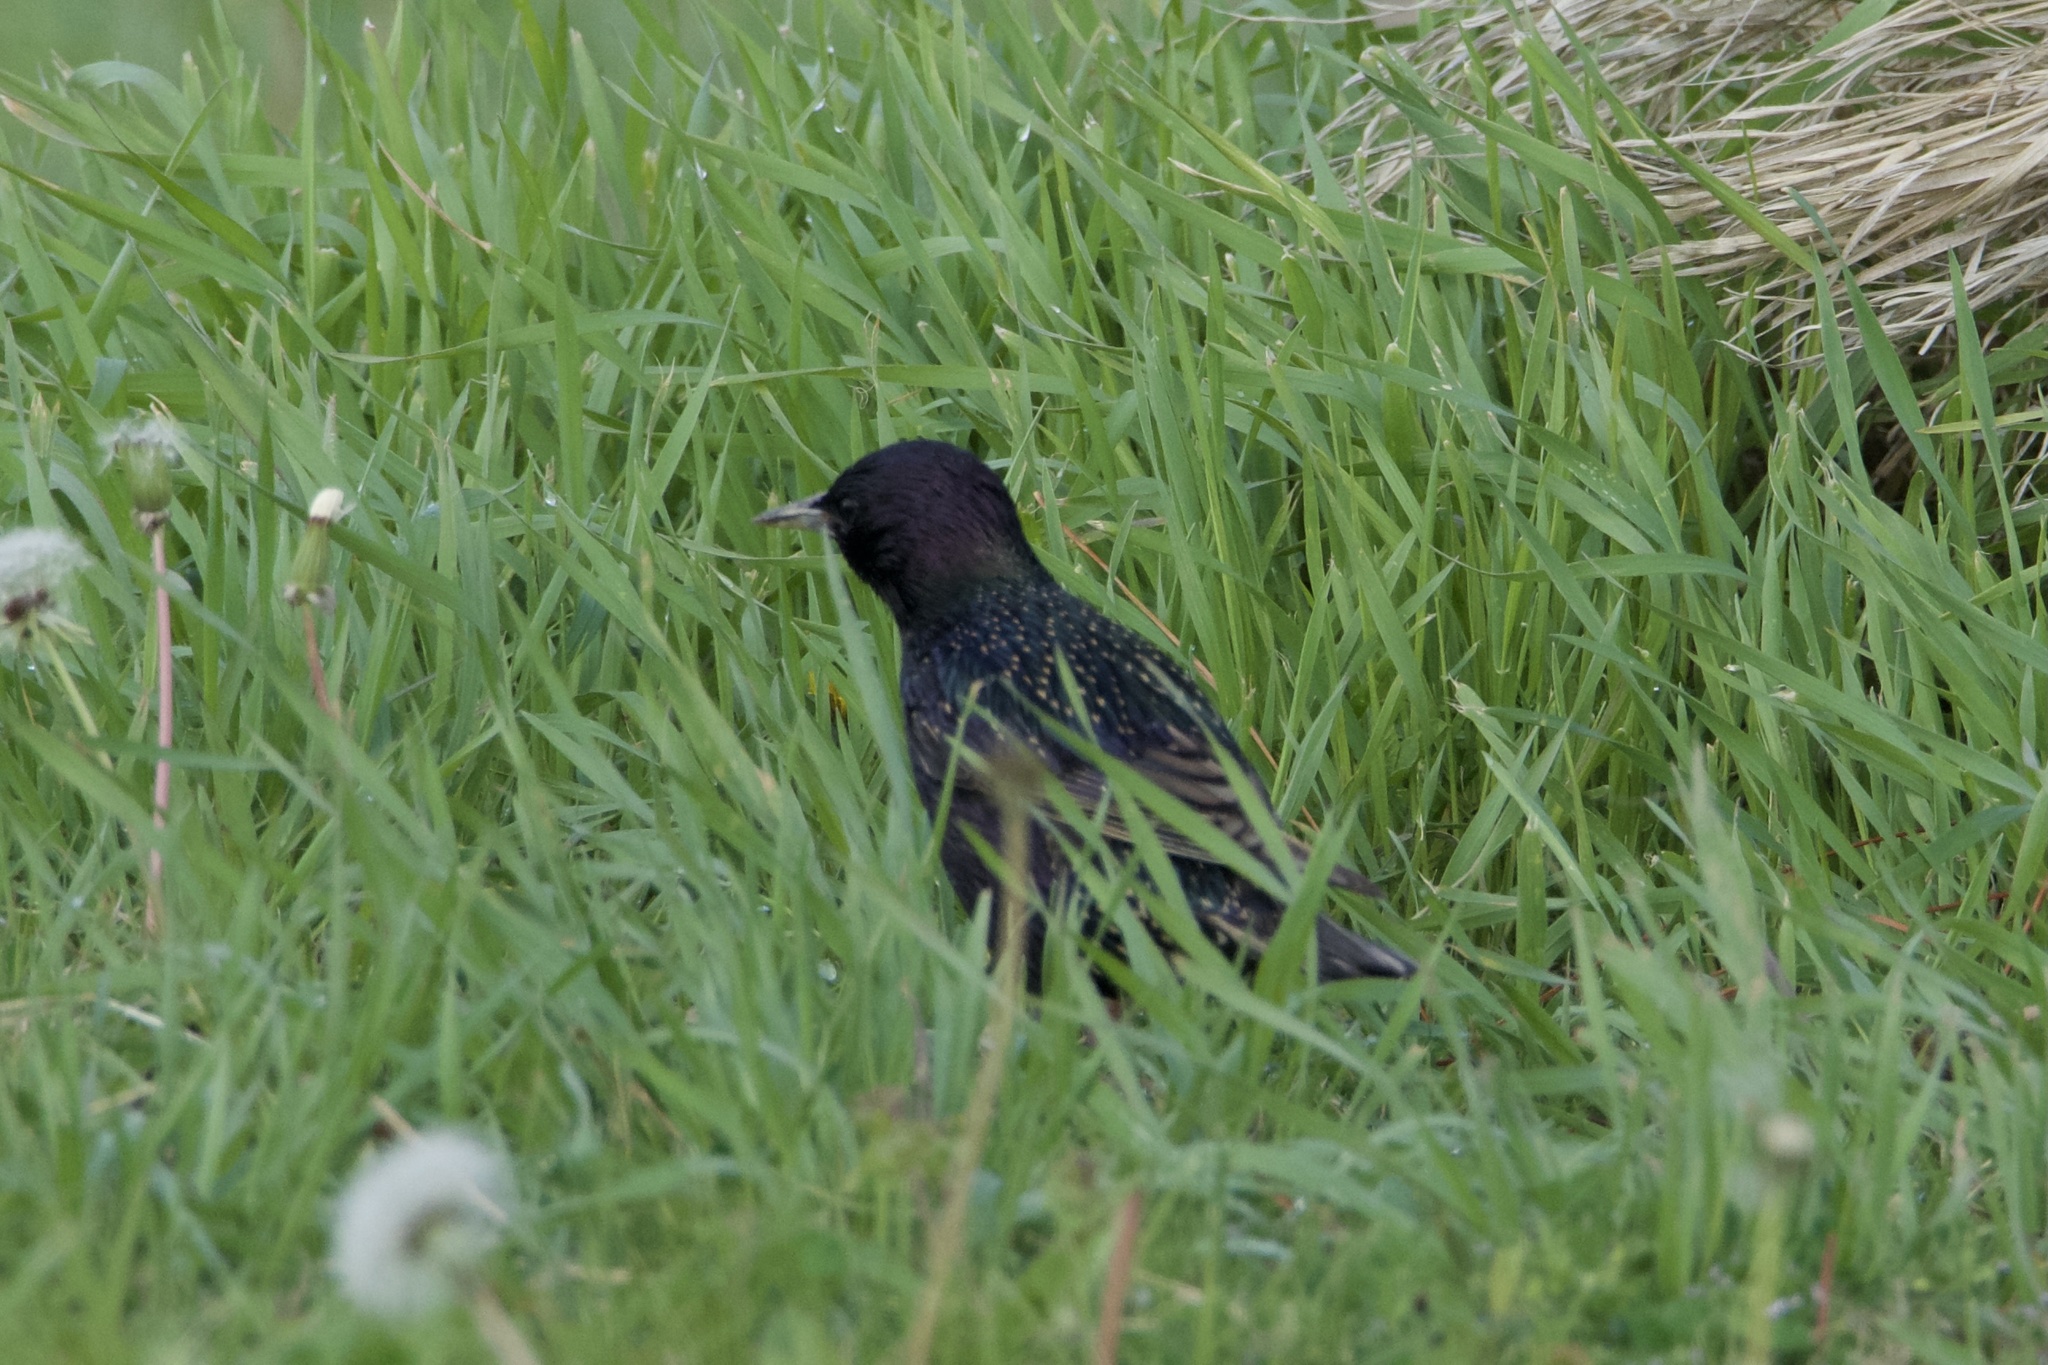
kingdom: Animalia
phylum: Chordata
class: Aves
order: Passeriformes
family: Sturnidae
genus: Sturnus
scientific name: Sturnus vulgaris
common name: Common starling
